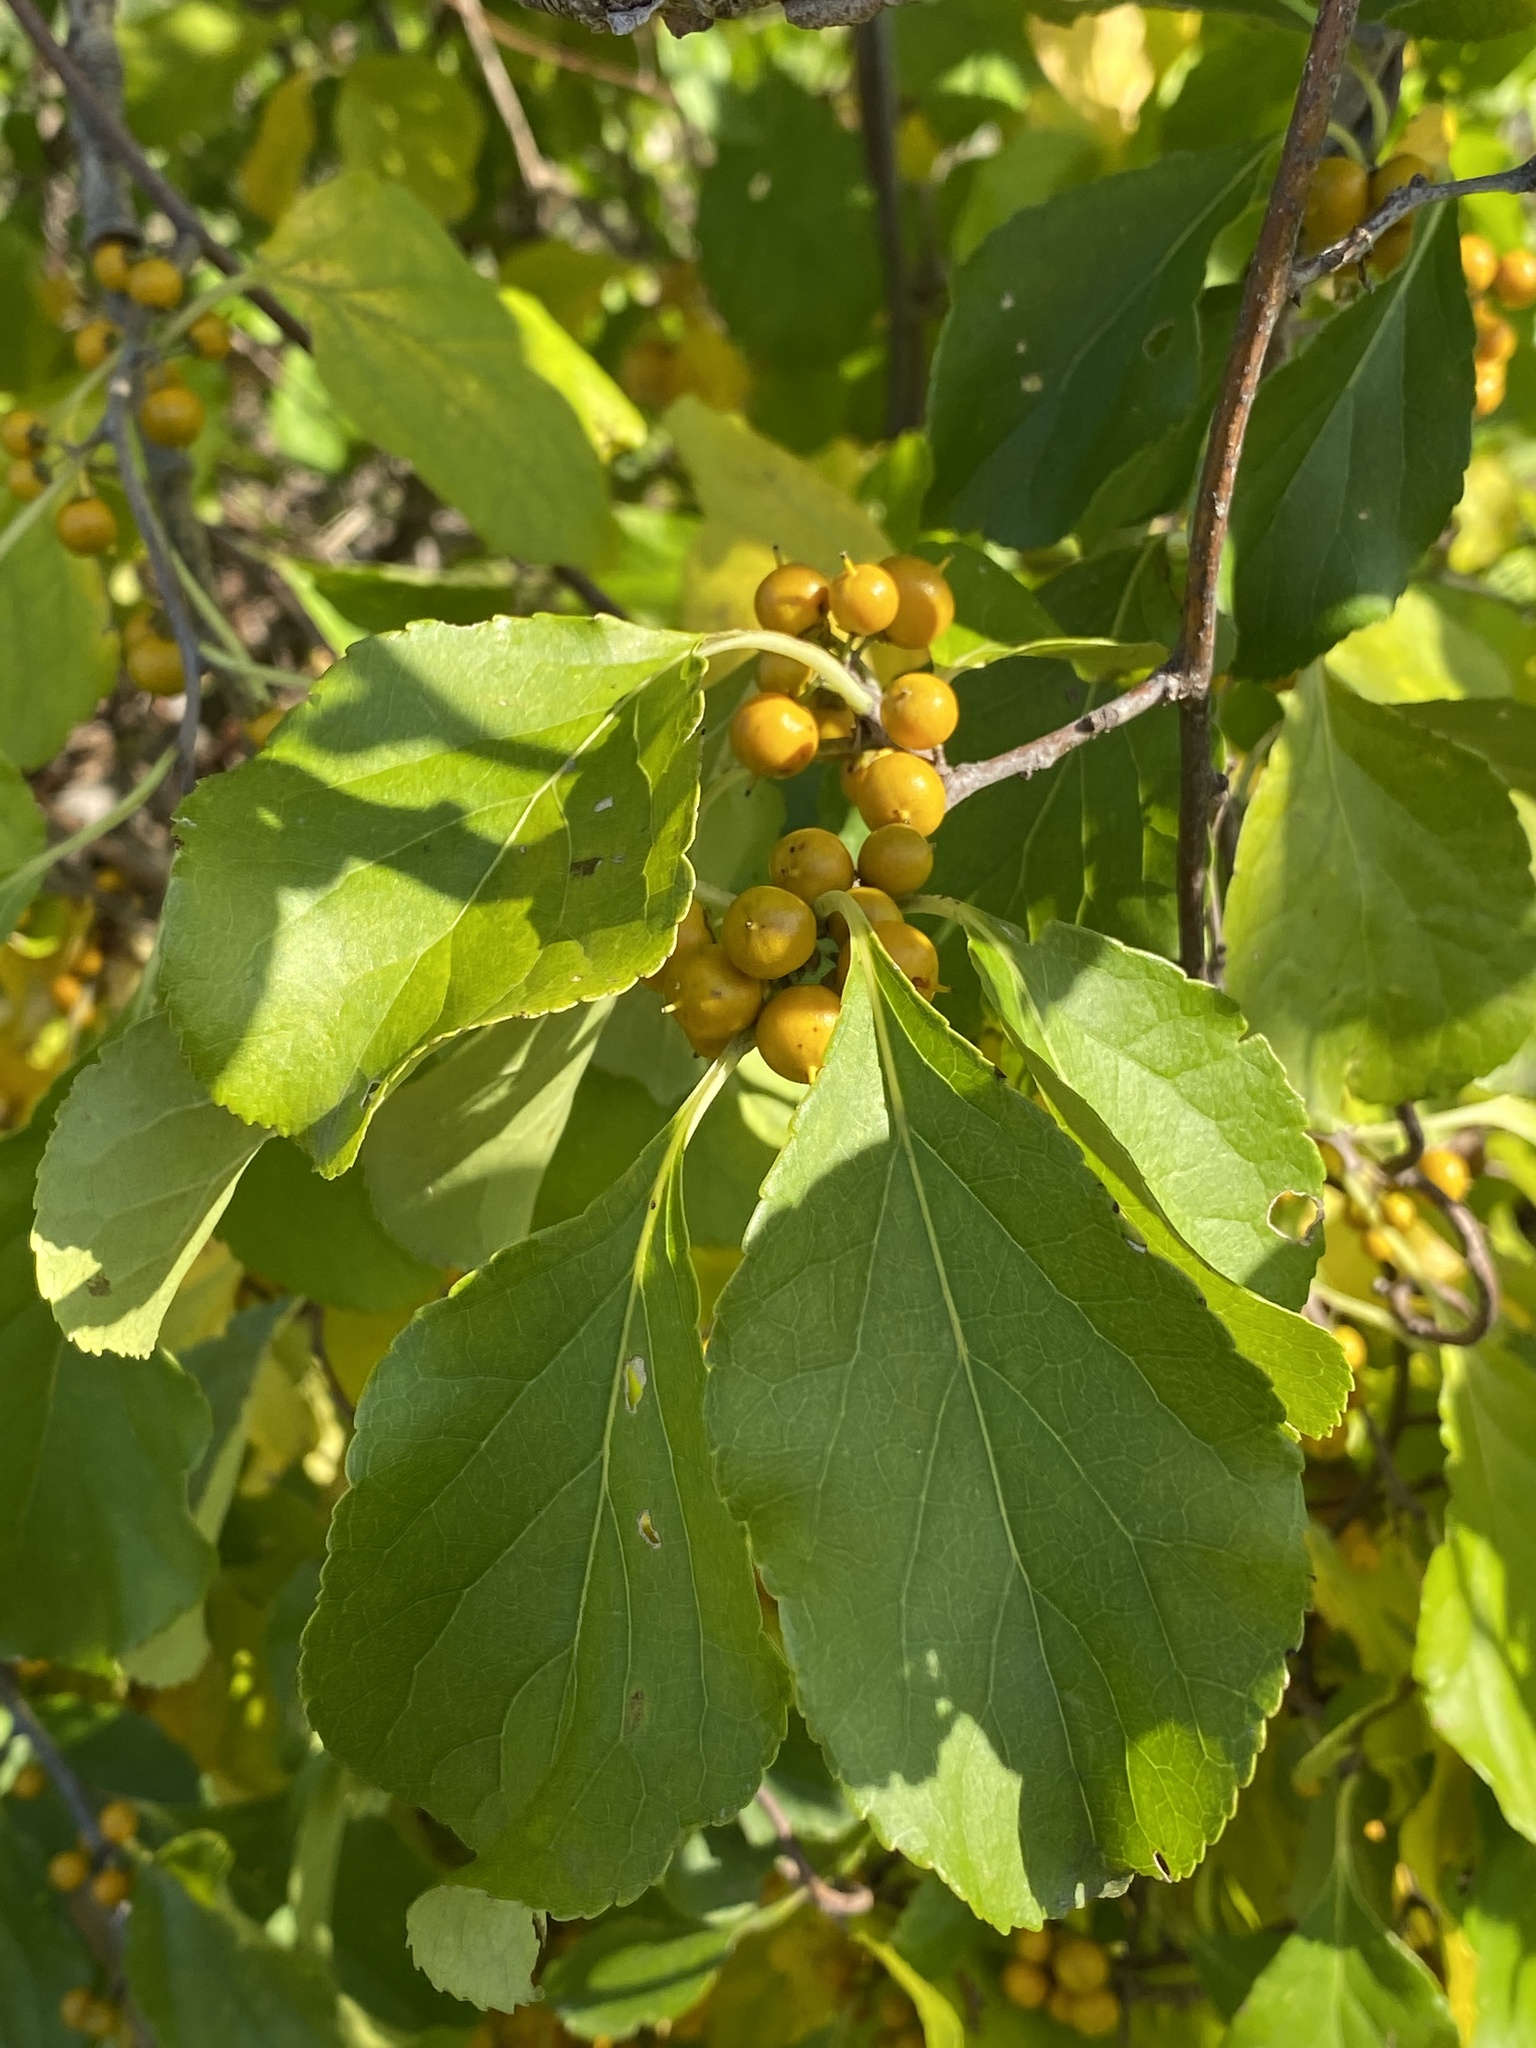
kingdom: Plantae
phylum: Tracheophyta
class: Magnoliopsida
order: Celastrales
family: Celastraceae
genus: Celastrus
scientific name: Celastrus orbiculatus
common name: Oriental bittersweet
